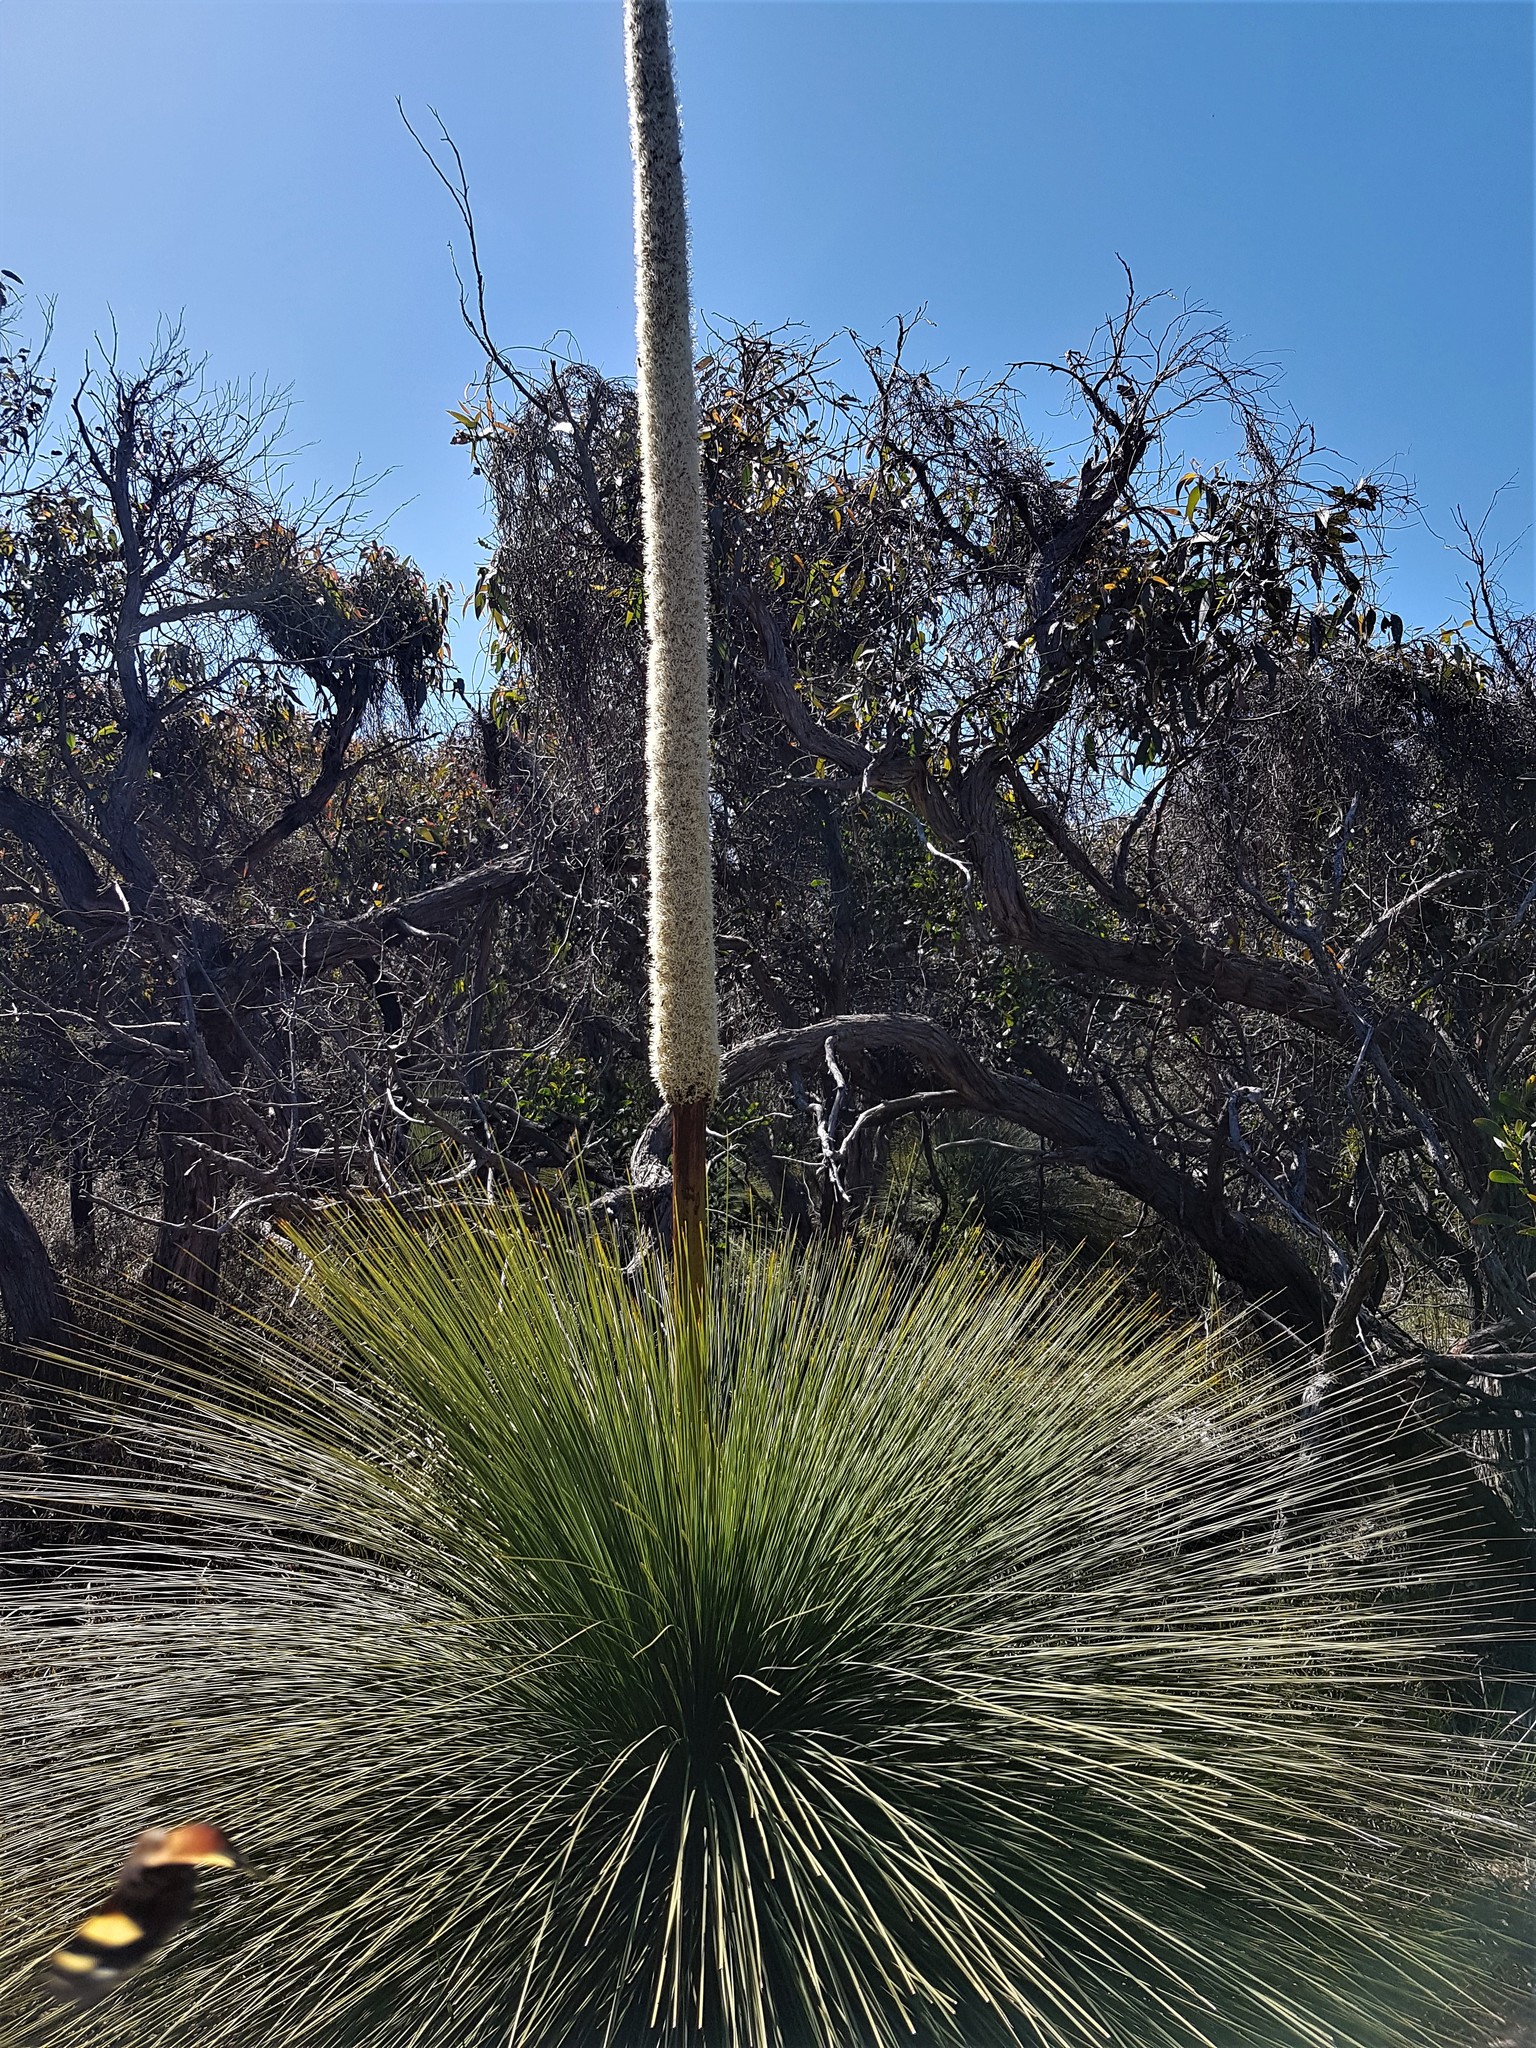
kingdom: Plantae
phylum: Tracheophyta
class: Liliopsida
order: Asparagales
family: Asphodelaceae
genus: Xanthorrhoea
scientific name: Xanthorrhoea australis
